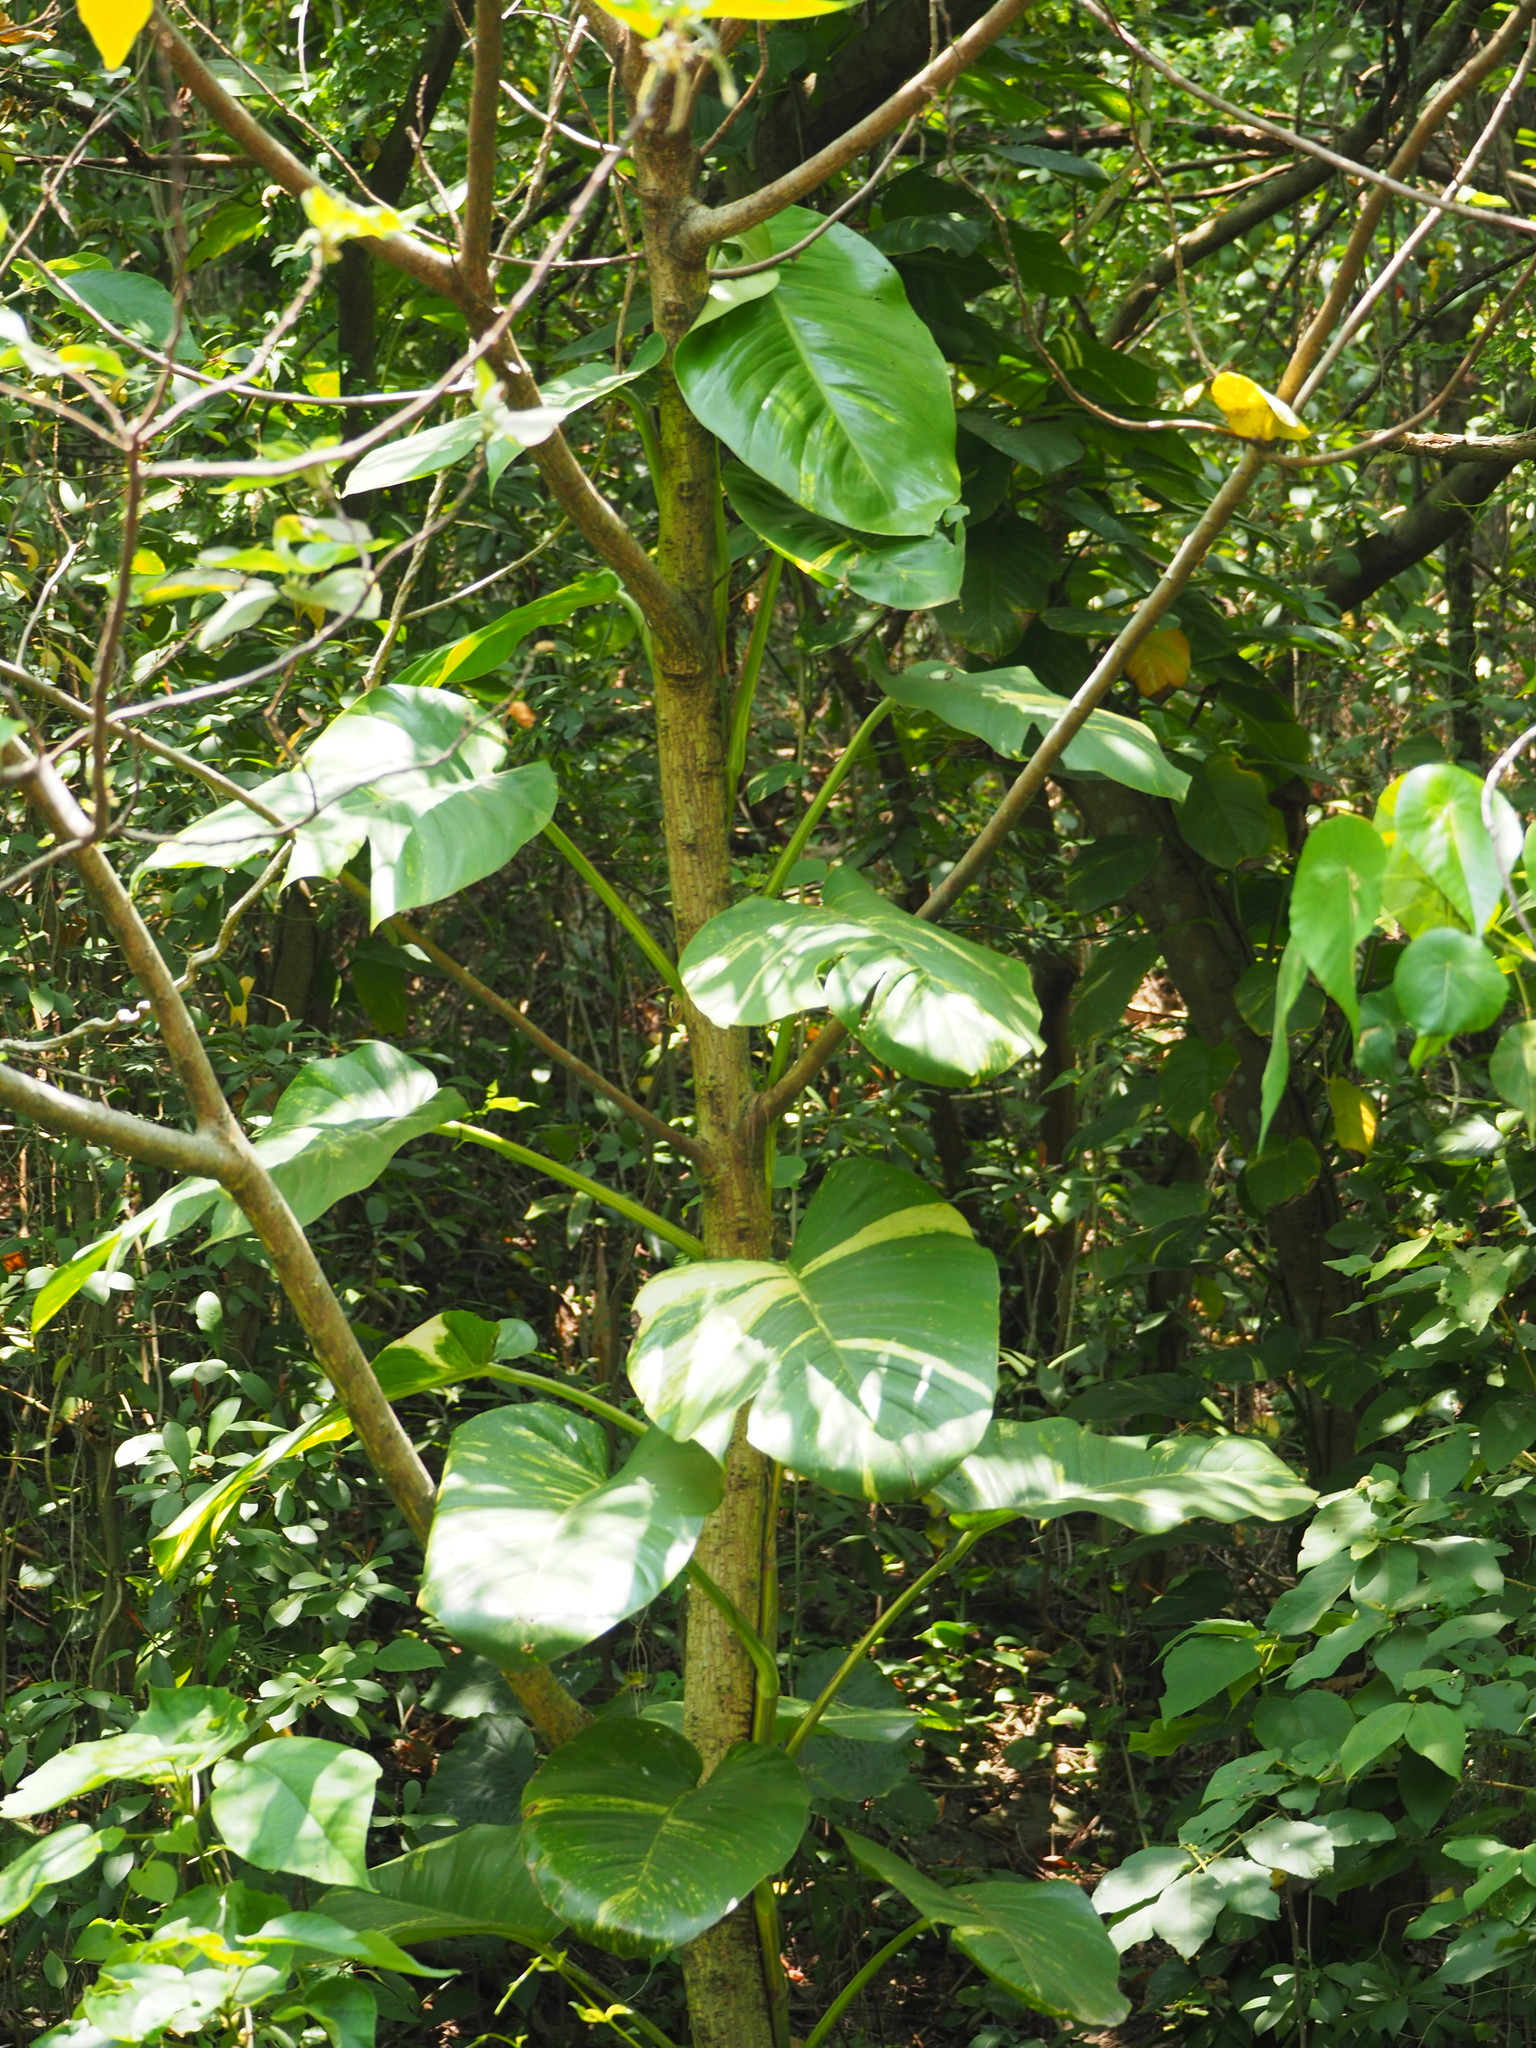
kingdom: Plantae
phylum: Tracheophyta
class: Liliopsida
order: Alismatales
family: Araceae
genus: Epipremnum
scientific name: Epipremnum aureum
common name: Golden hunter's-robe
